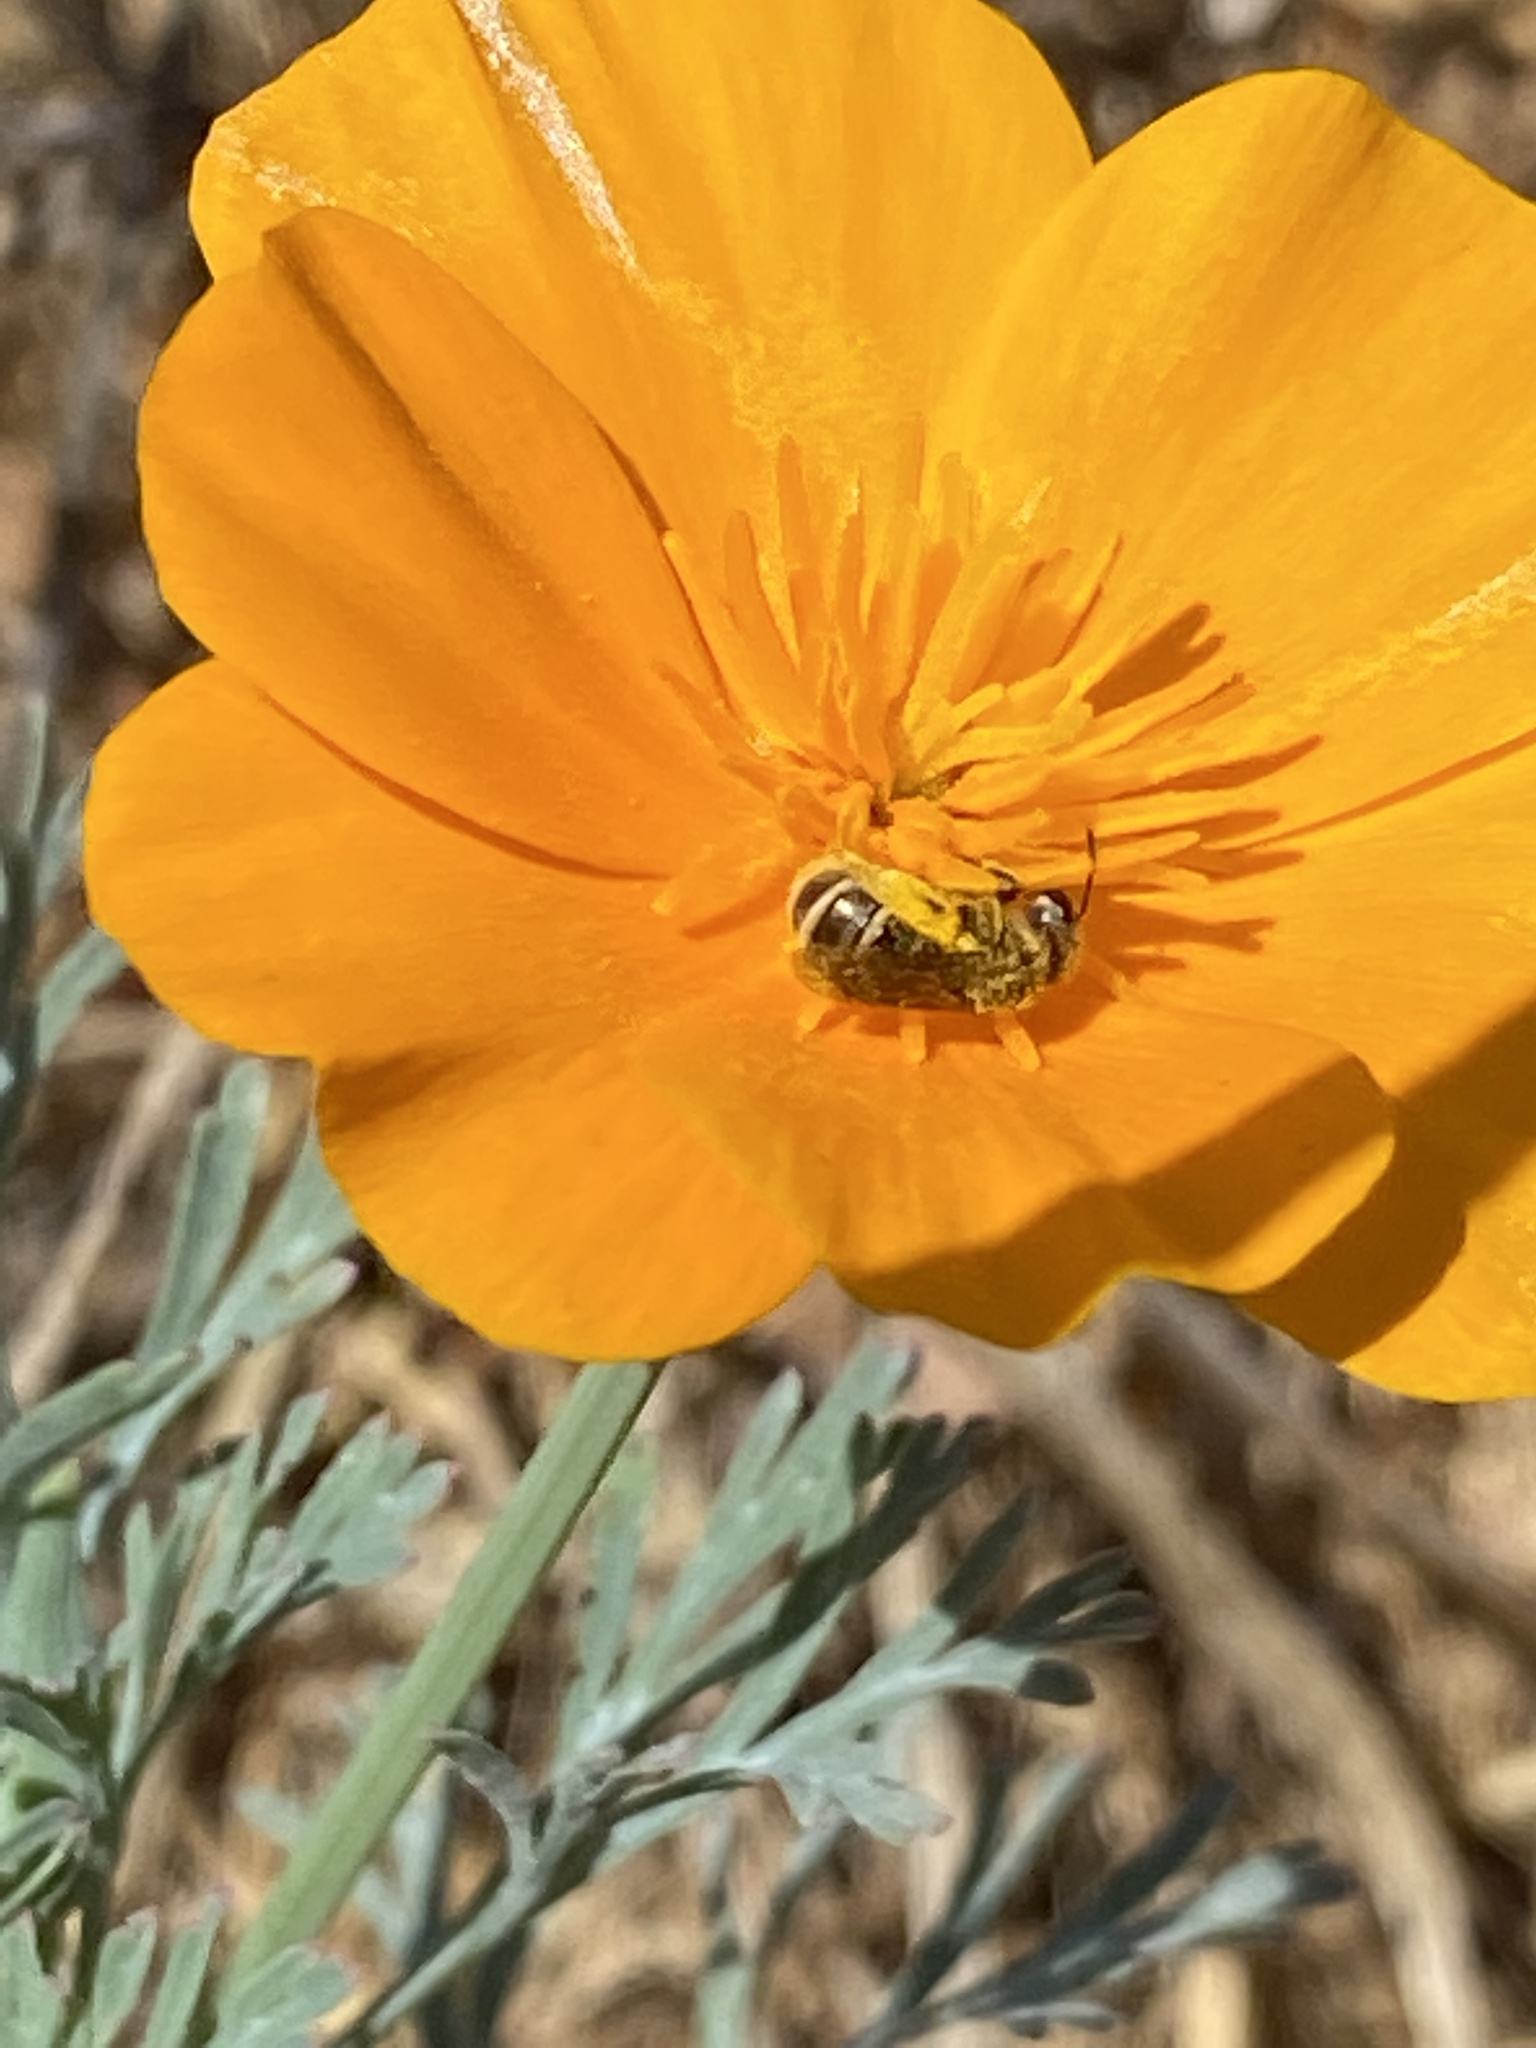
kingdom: Animalia
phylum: Arthropoda
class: Insecta
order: Hymenoptera
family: Halictidae
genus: Halictus
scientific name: Halictus tripartitus
